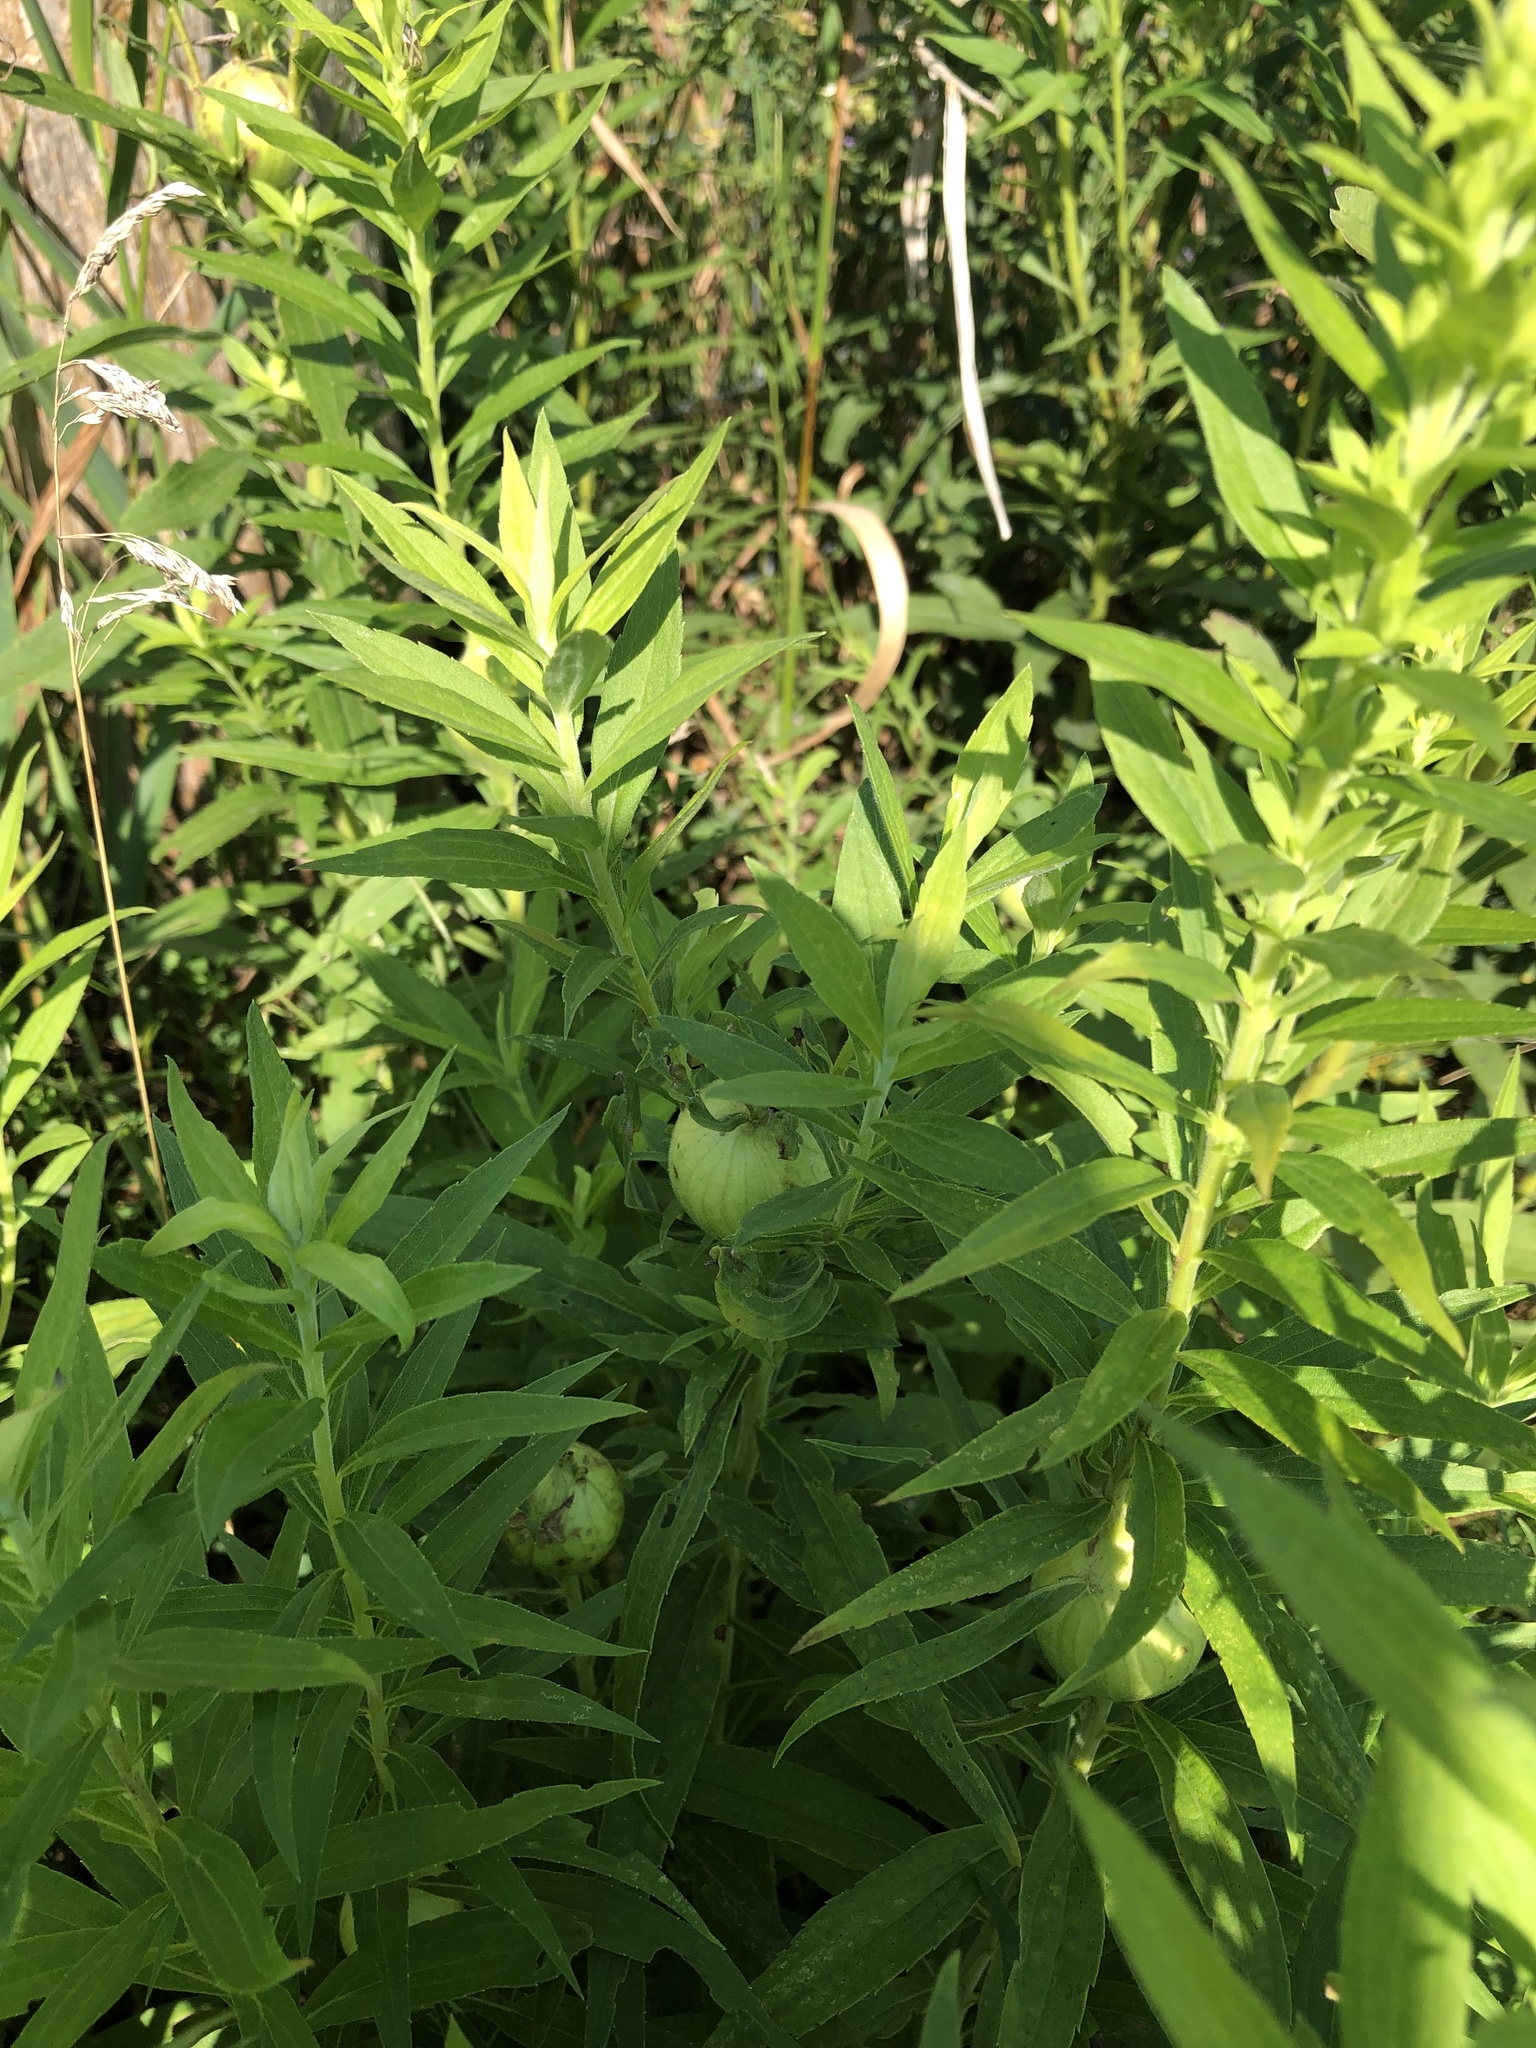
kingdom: Animalia
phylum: Arthropoda
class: Insecta
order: Diptera
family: Tephritidae
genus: Eurosta
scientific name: Eurosta solidaginis
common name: Goldenrod gall fly
